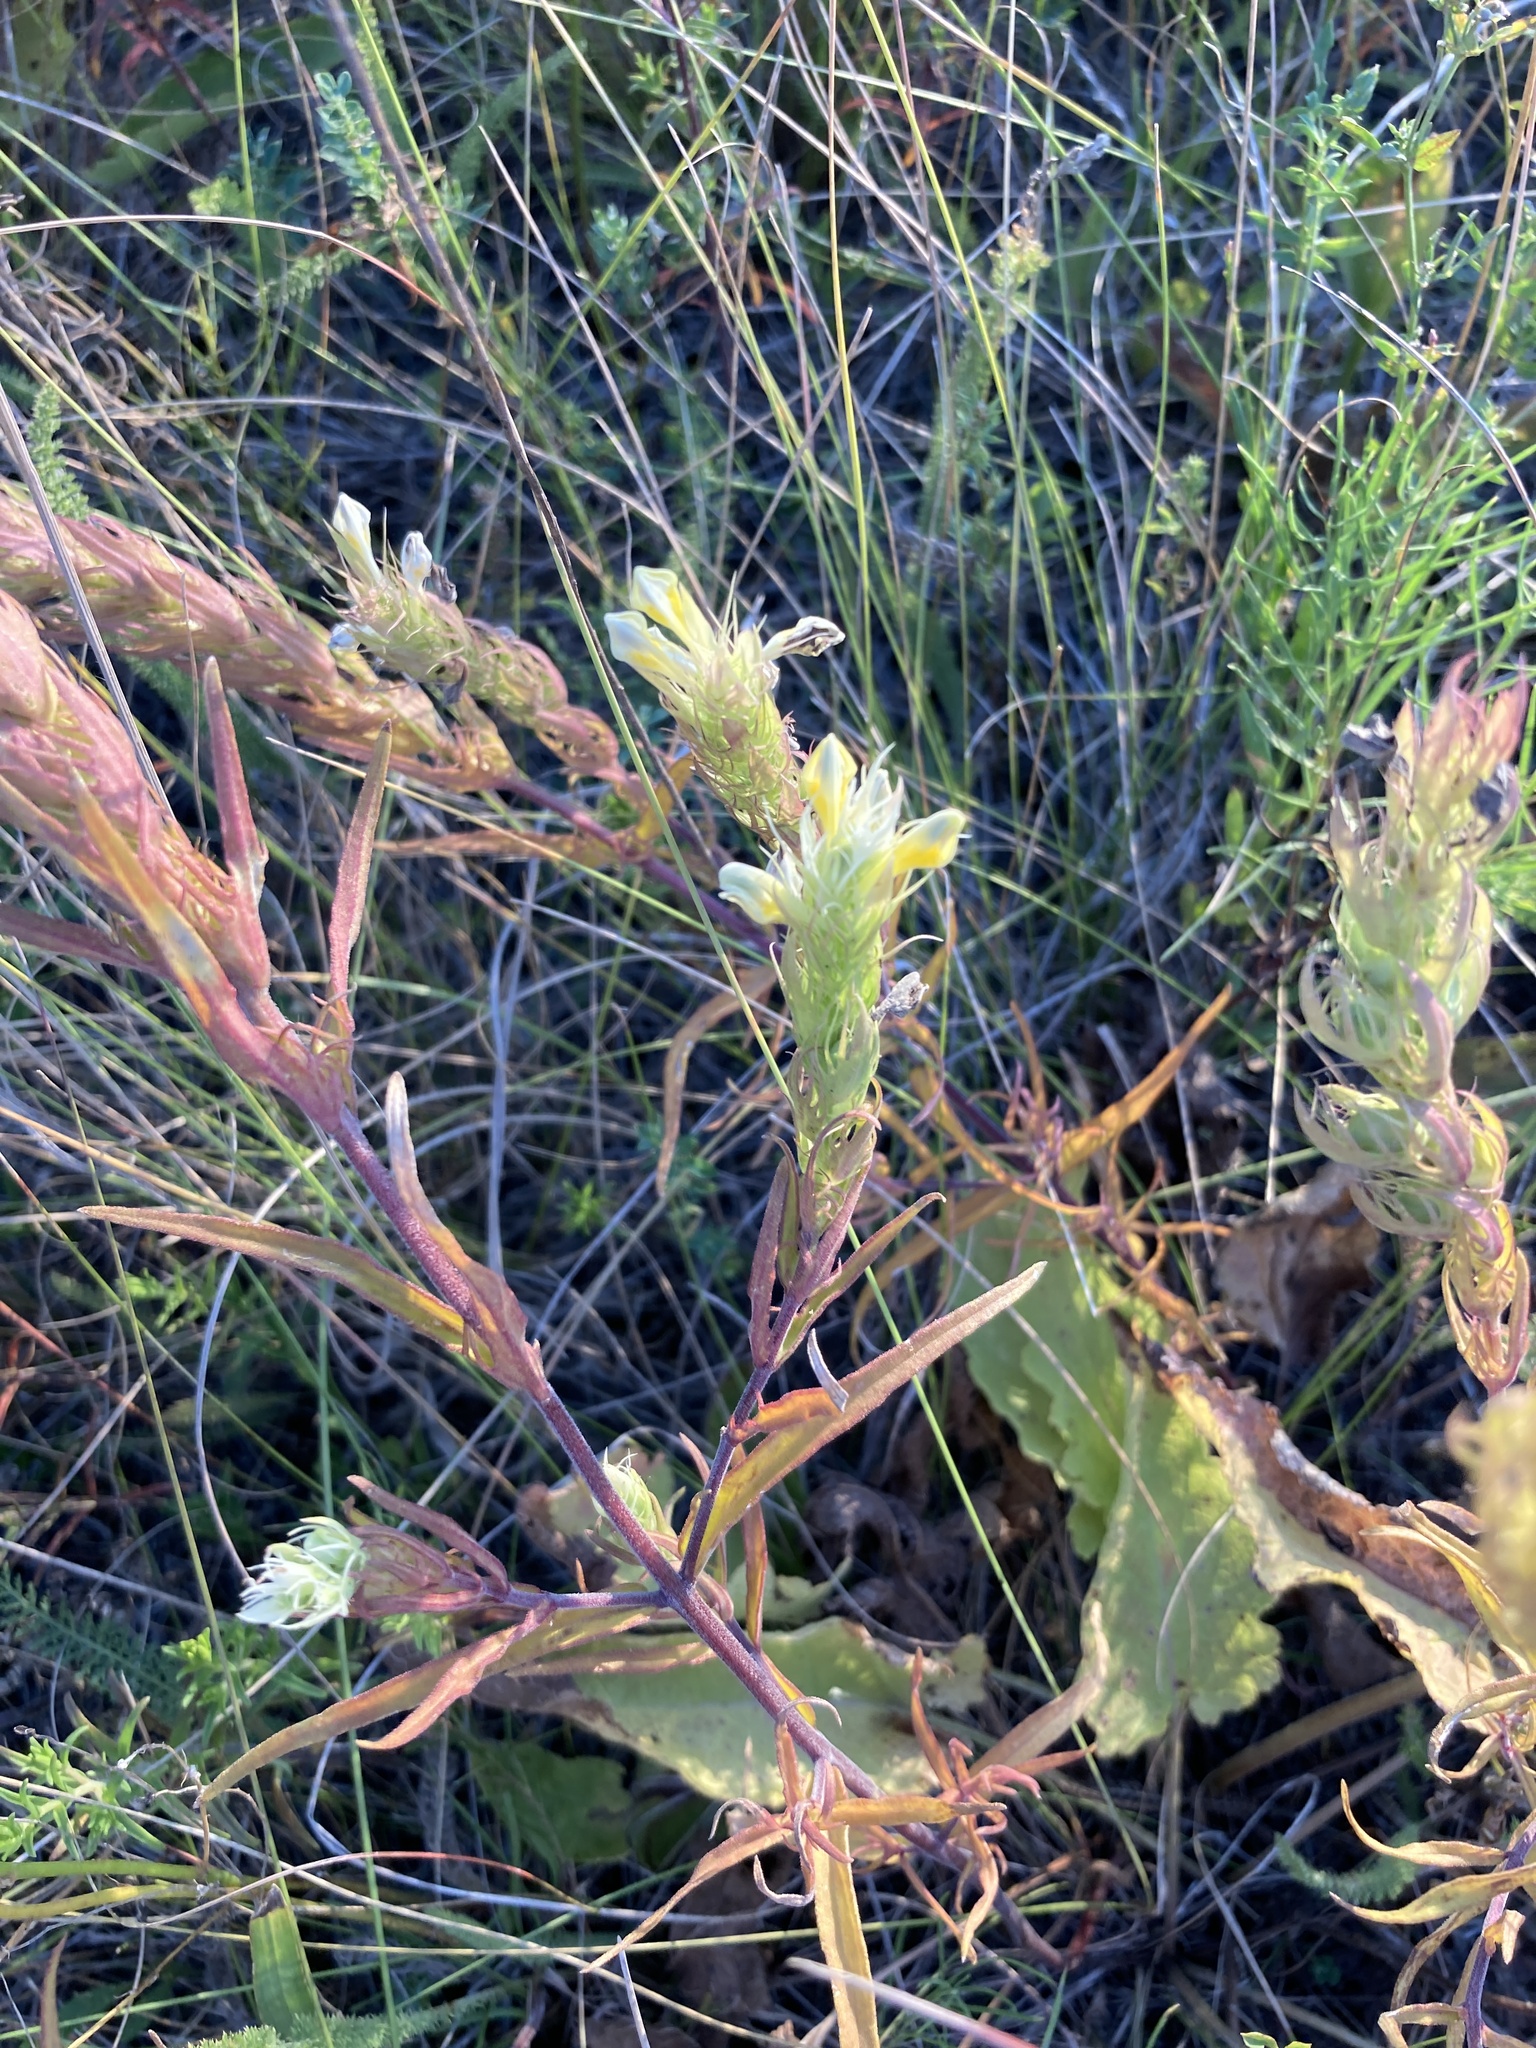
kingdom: Plantae
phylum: Tracheophyta
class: Magnoliopsida
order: Lamiales
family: Orobanchaceae
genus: Melampyrum
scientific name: Melampyrum arvense
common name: Field cow-wheat
